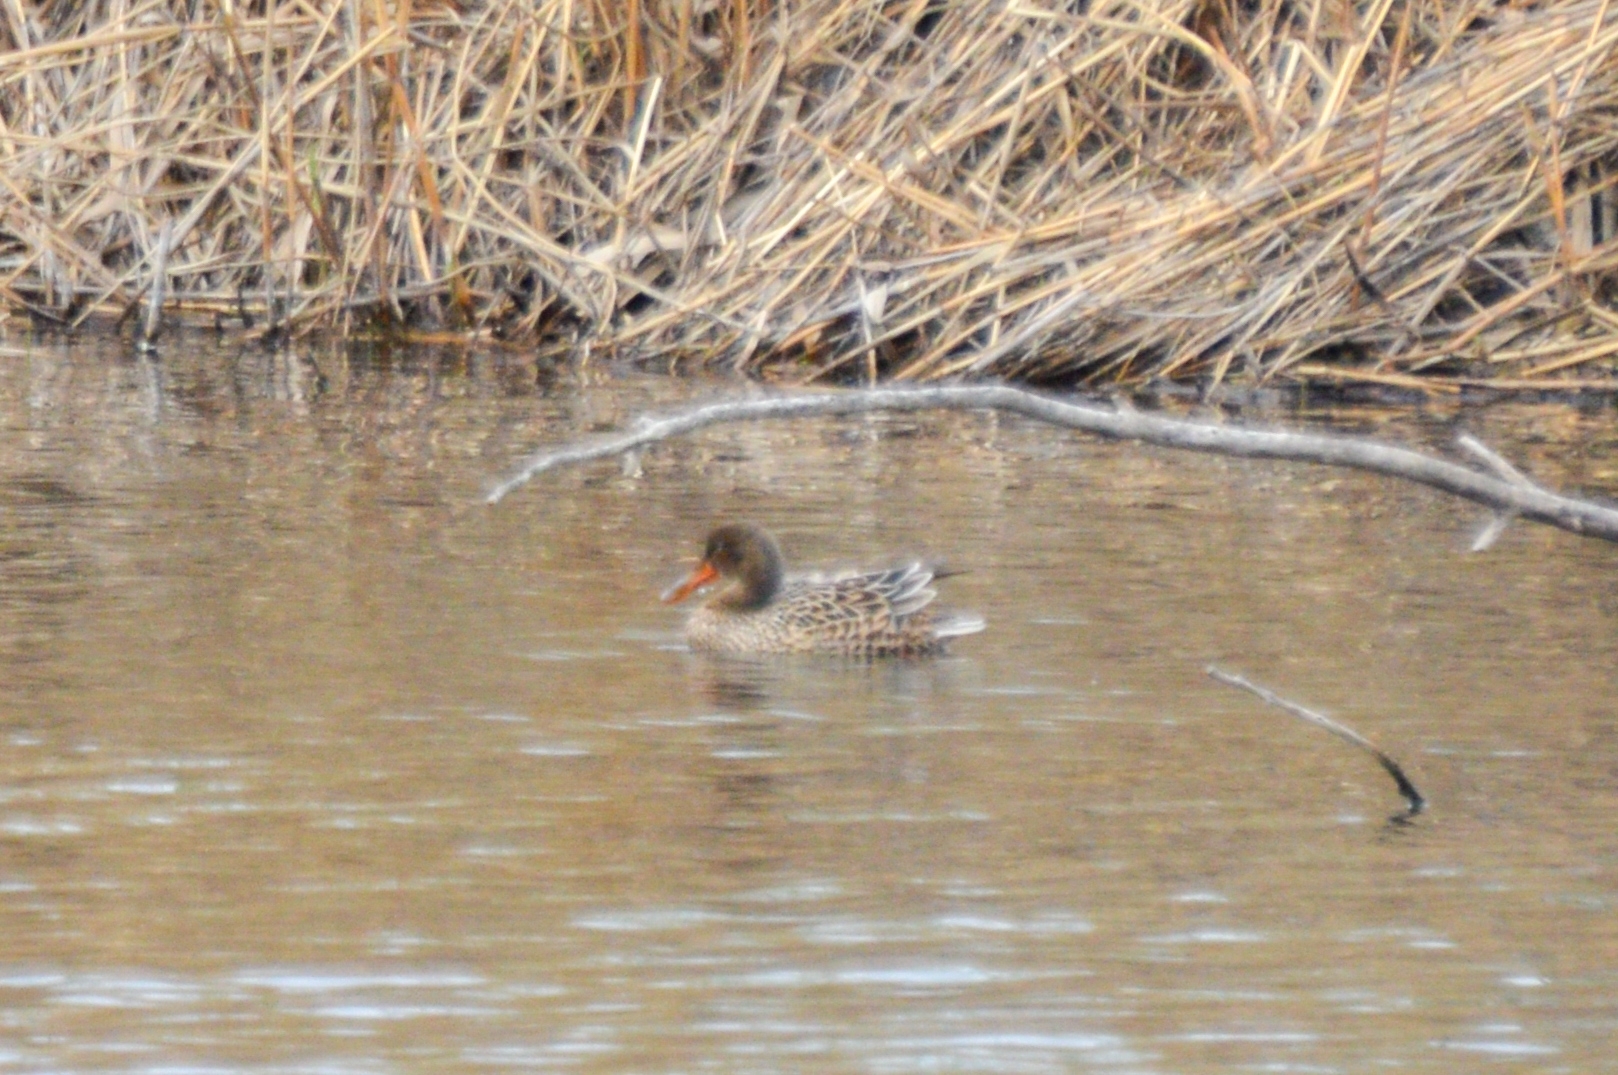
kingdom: Animalia
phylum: Chordata
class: Aves
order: Anseriformes
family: Anatidae
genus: Spatula
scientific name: Spatula clypeata
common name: Northern shoveler
